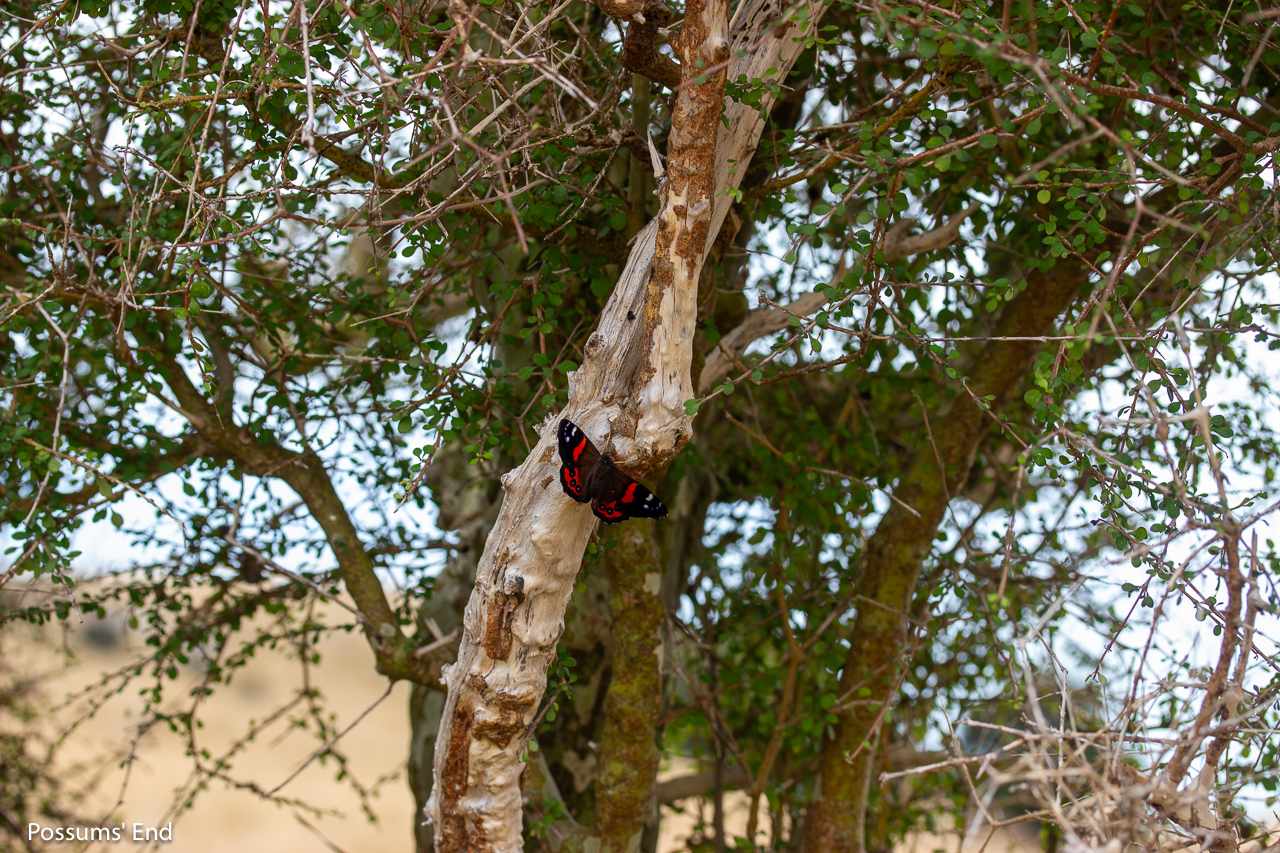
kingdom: Animalia
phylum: Arthropoda
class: Insecta
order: Lepidoptera
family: Nymphalidae
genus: Vanessa
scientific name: Vanessa gonerilla
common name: New zealand red admiral
